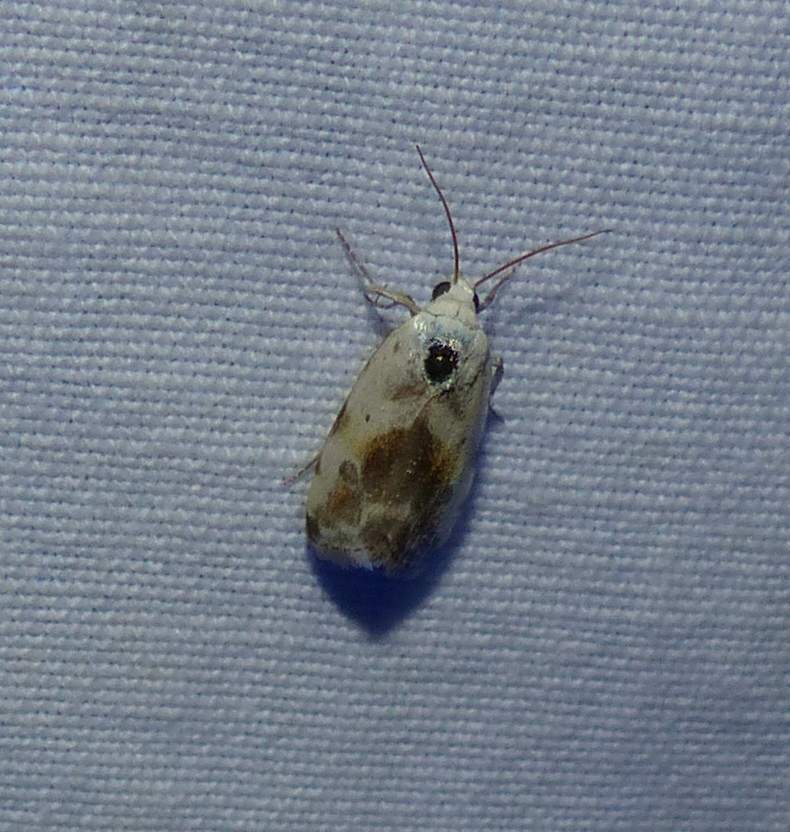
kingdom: Animalia
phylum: Arthropoda
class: Insecta
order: Lepidoptera
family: Noctuidae
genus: Acontia
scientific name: Acontia candefacta
